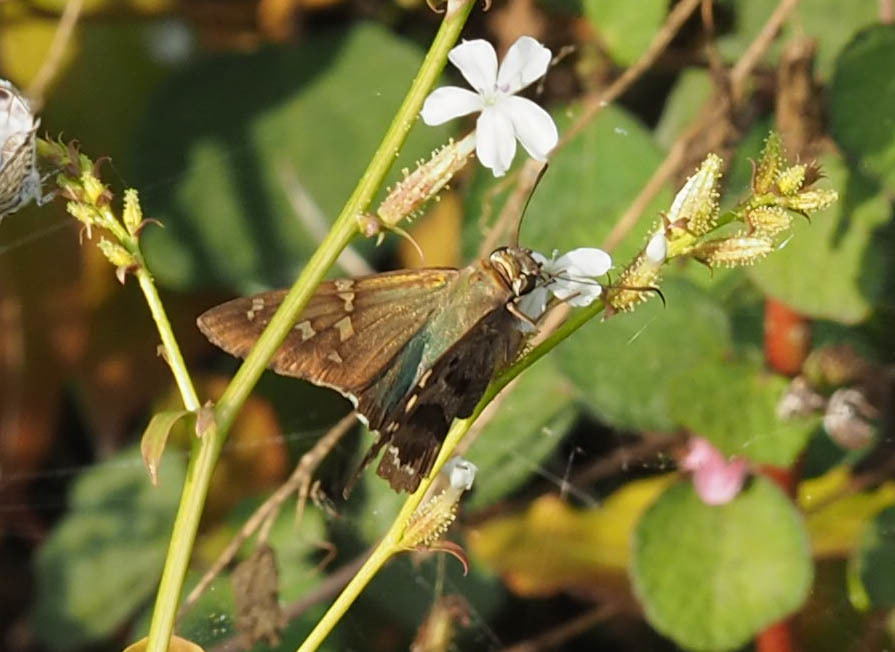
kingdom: Animalia
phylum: Arthropoda
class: Insecta
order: Lepidoptera
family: Hesperiidae
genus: Urbanus
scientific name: Urbanus proteus
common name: Long-tailed skipper
